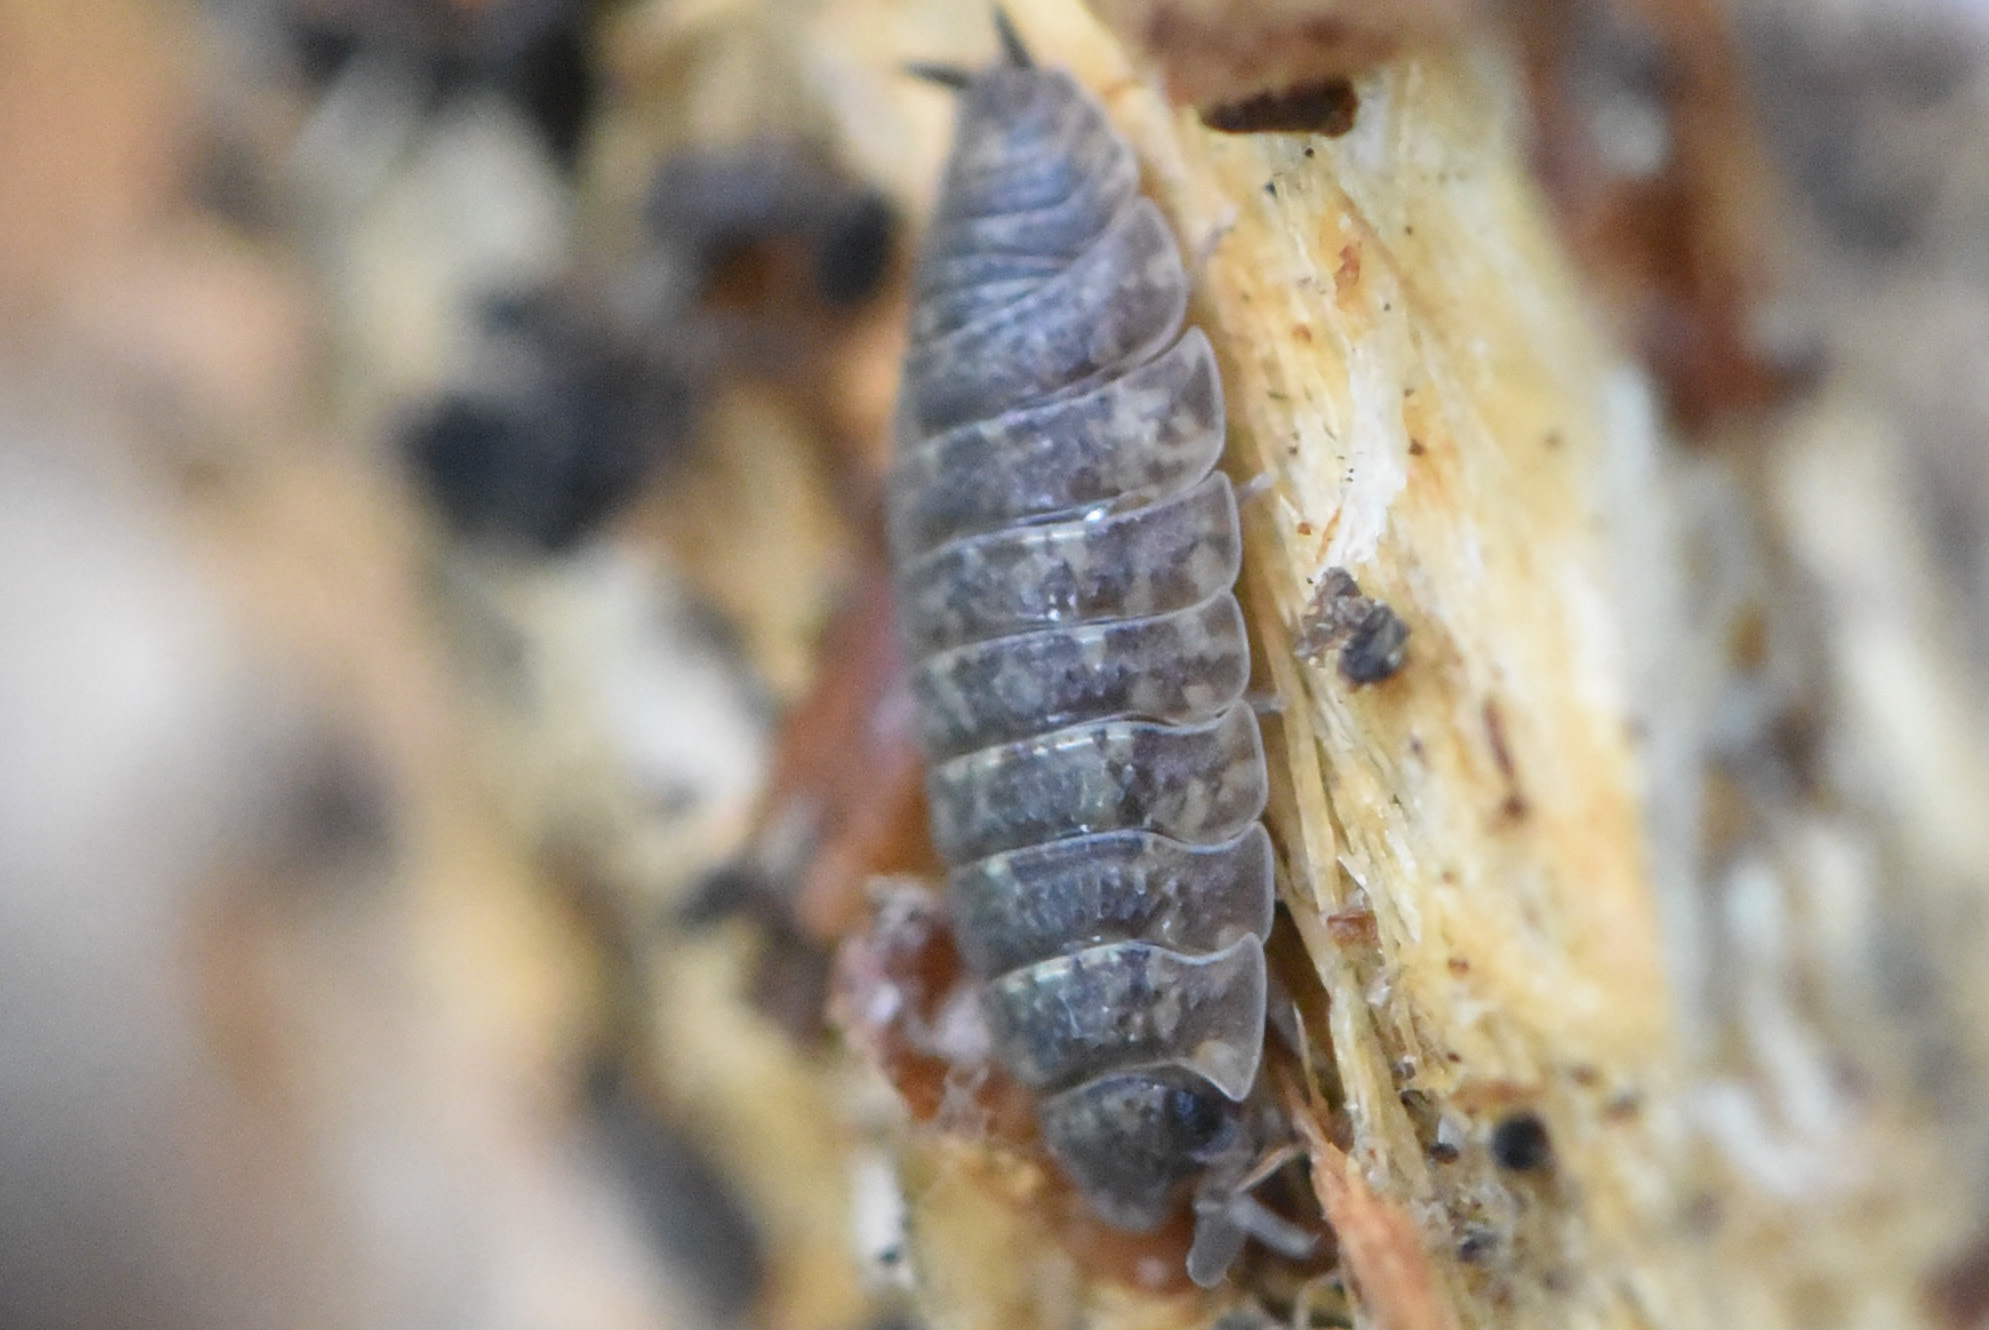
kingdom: Animalia
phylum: Arthropoda
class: Malacostraca
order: Isopoda
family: Porcellionidae
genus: Porcellio
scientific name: Porcellio scaber
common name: Common rough woodlouse
